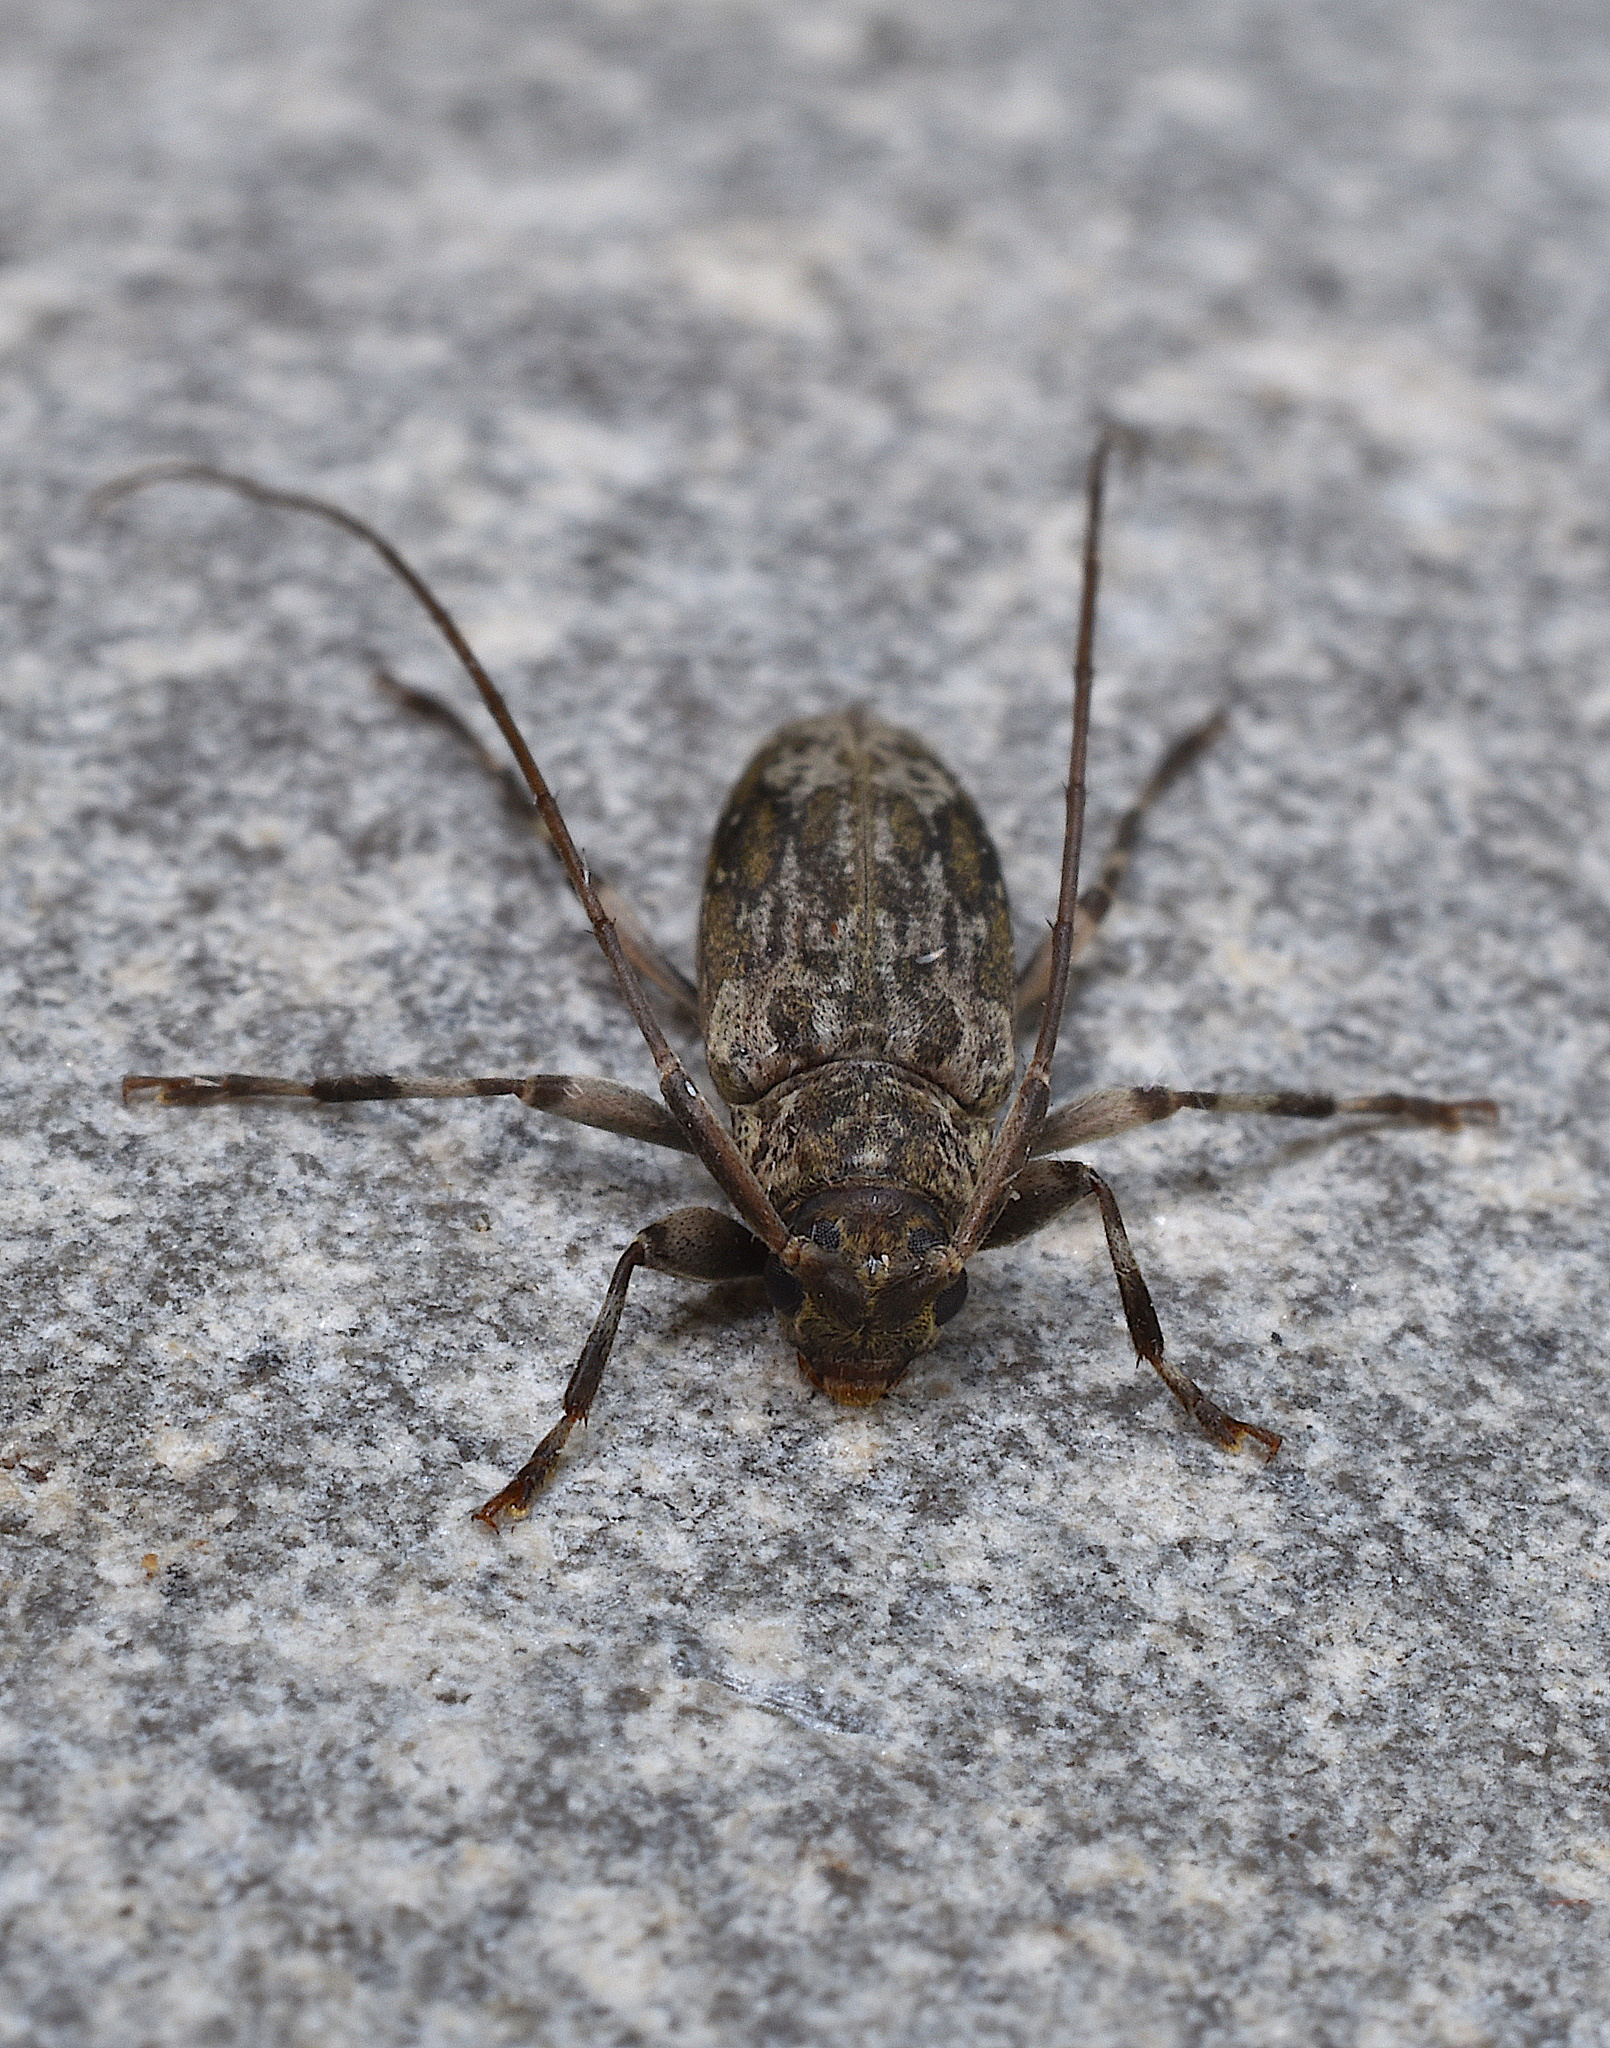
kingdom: Animalia
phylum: Arthropoda
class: Insecta
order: Coleoptera
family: Cerambycidae
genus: Lepturges
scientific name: Lepturges confluens
